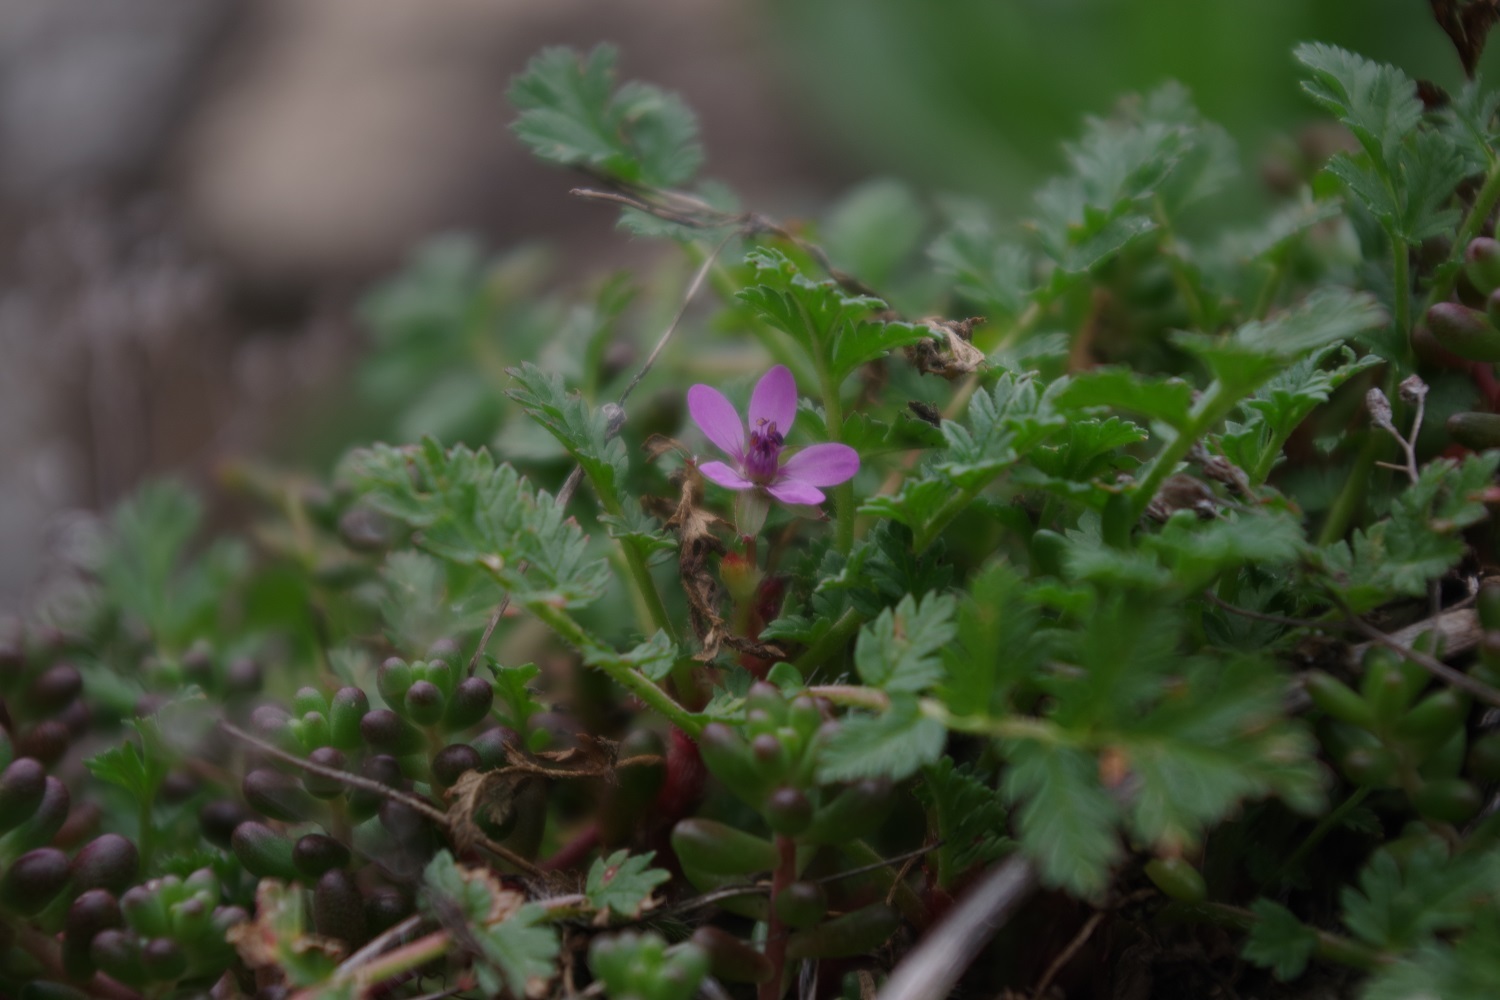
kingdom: Plantae
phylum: Tracheophyta
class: Magnoliopsida
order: Geraniales
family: Geraniaceae
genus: Erodium
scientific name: Erodium cicutarium
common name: Common stork's-bill
